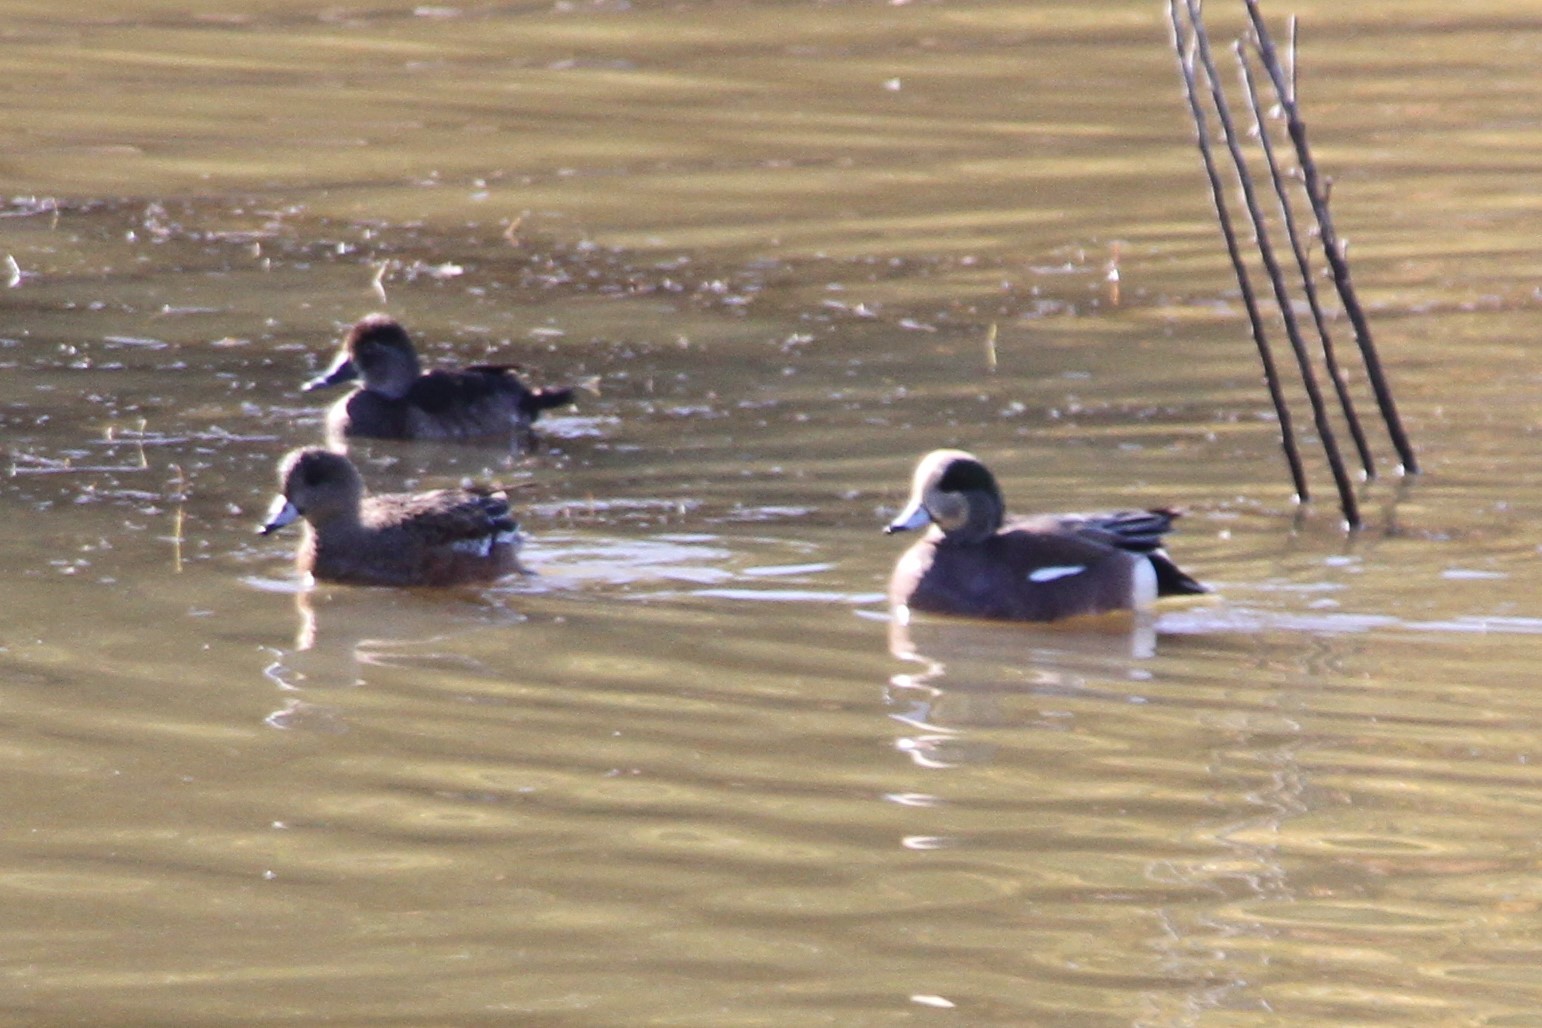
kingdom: Animalia
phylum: Chordata
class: Aves
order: Anseriformes
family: Anatidae
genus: Mareca
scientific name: Mareca americana
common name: American wigeon
